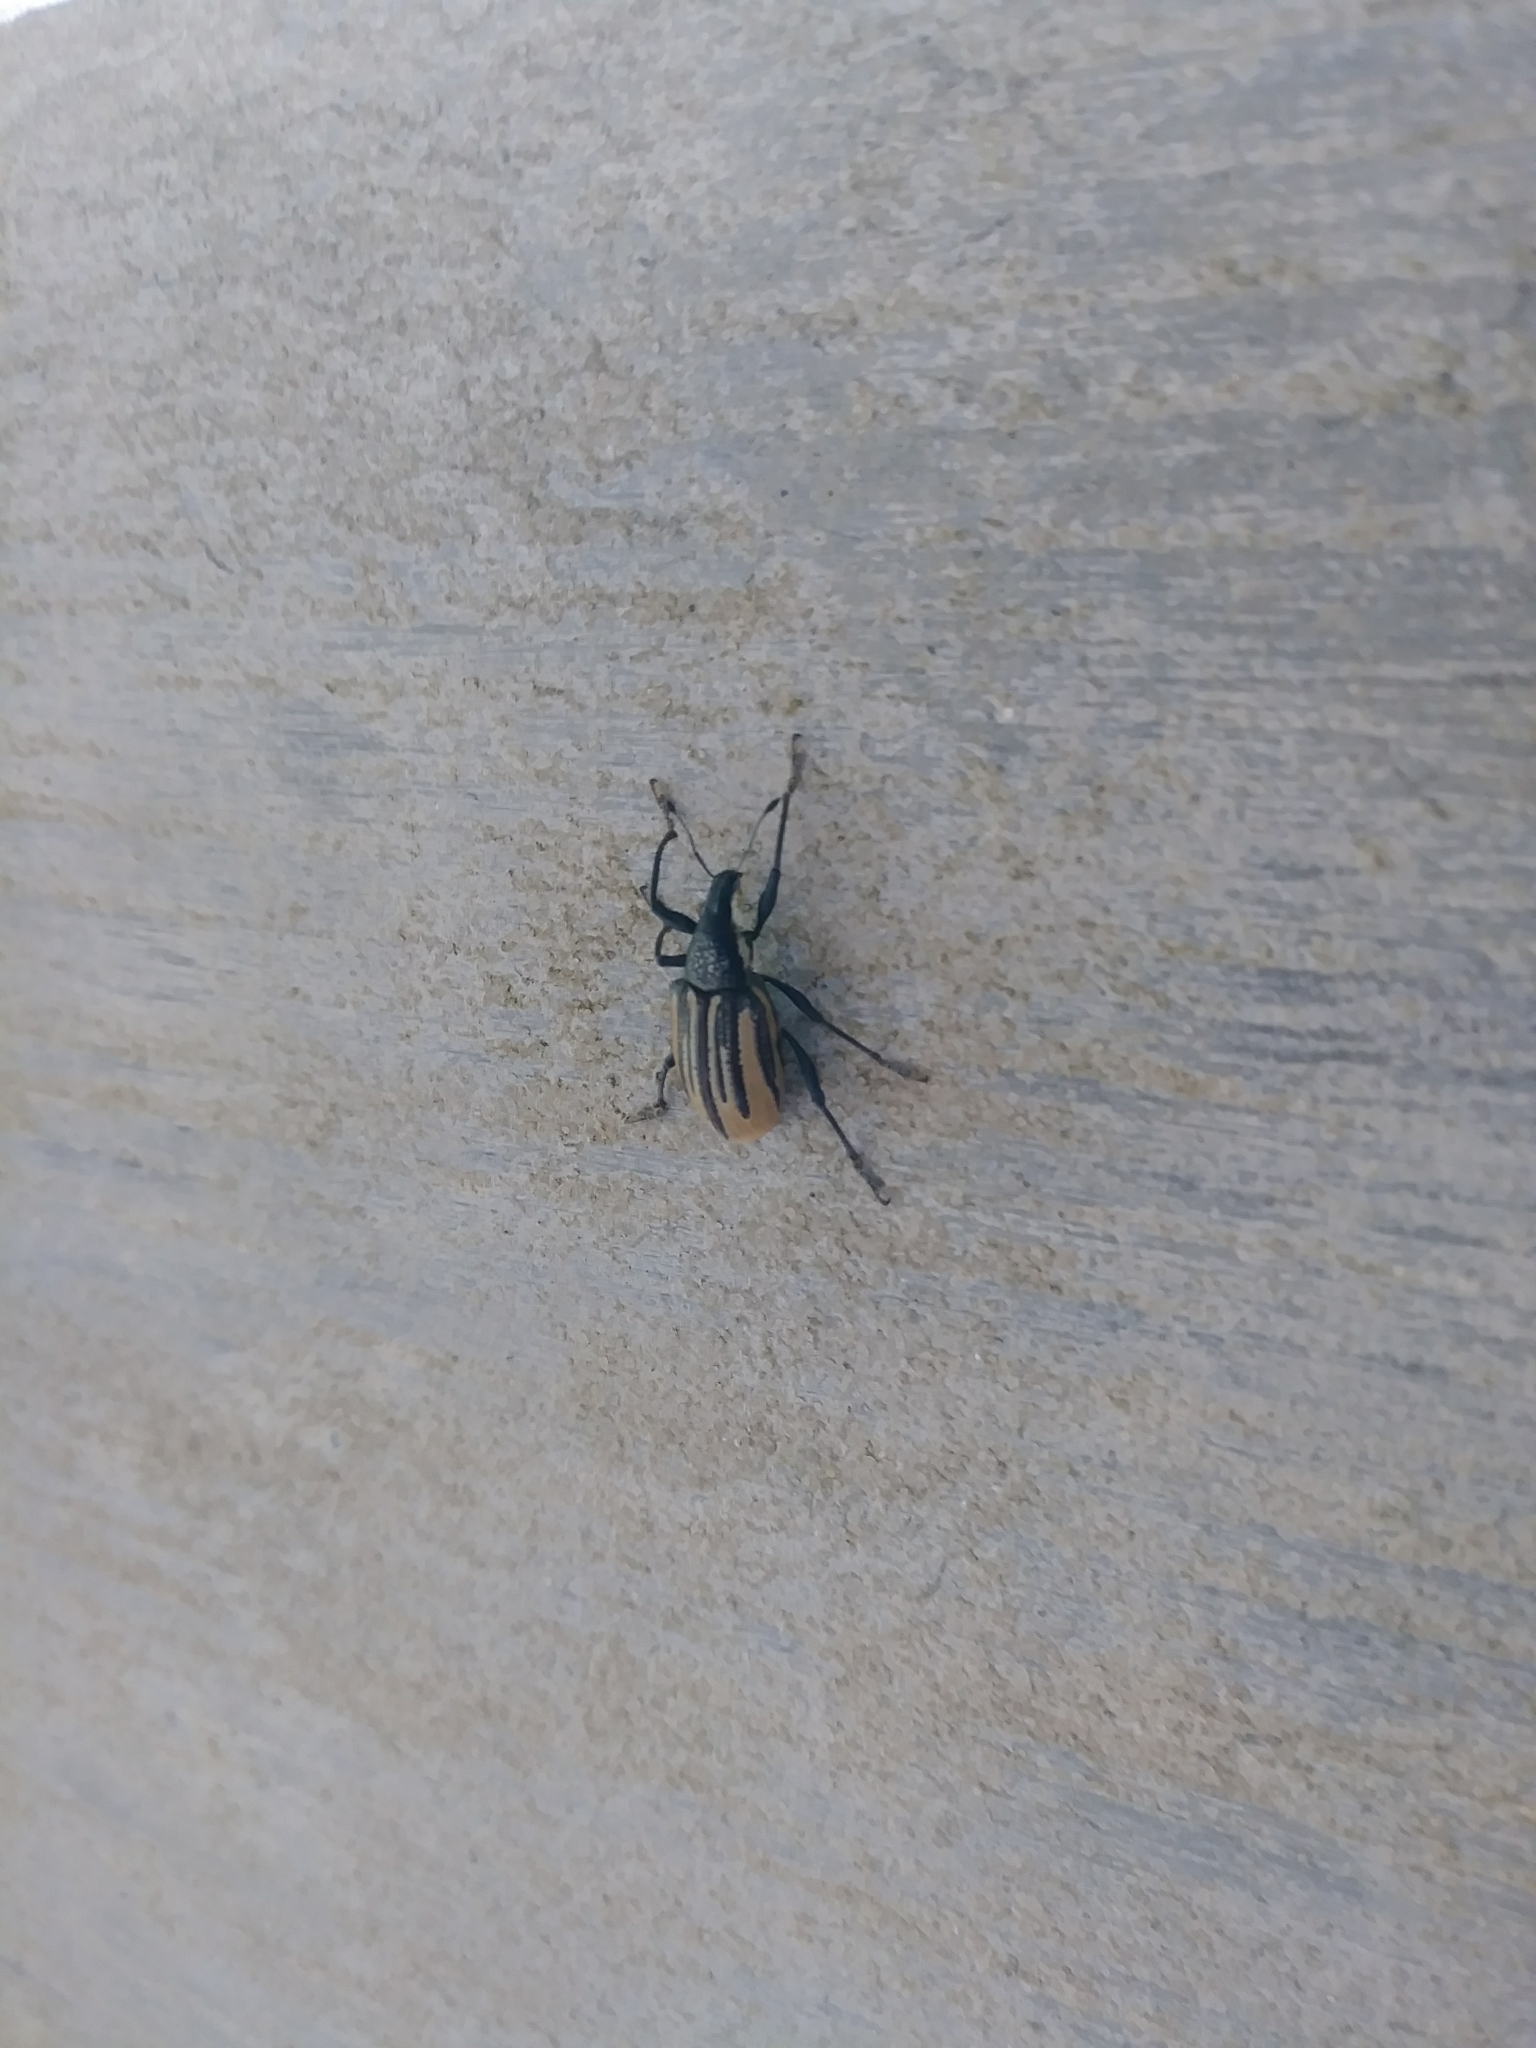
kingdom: Animalia
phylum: Arthropoda
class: Insecta
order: Coleoptera
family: Curculionidae
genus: Diaprepes
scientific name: Diaprepes abbreviatus
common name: Root weevil
